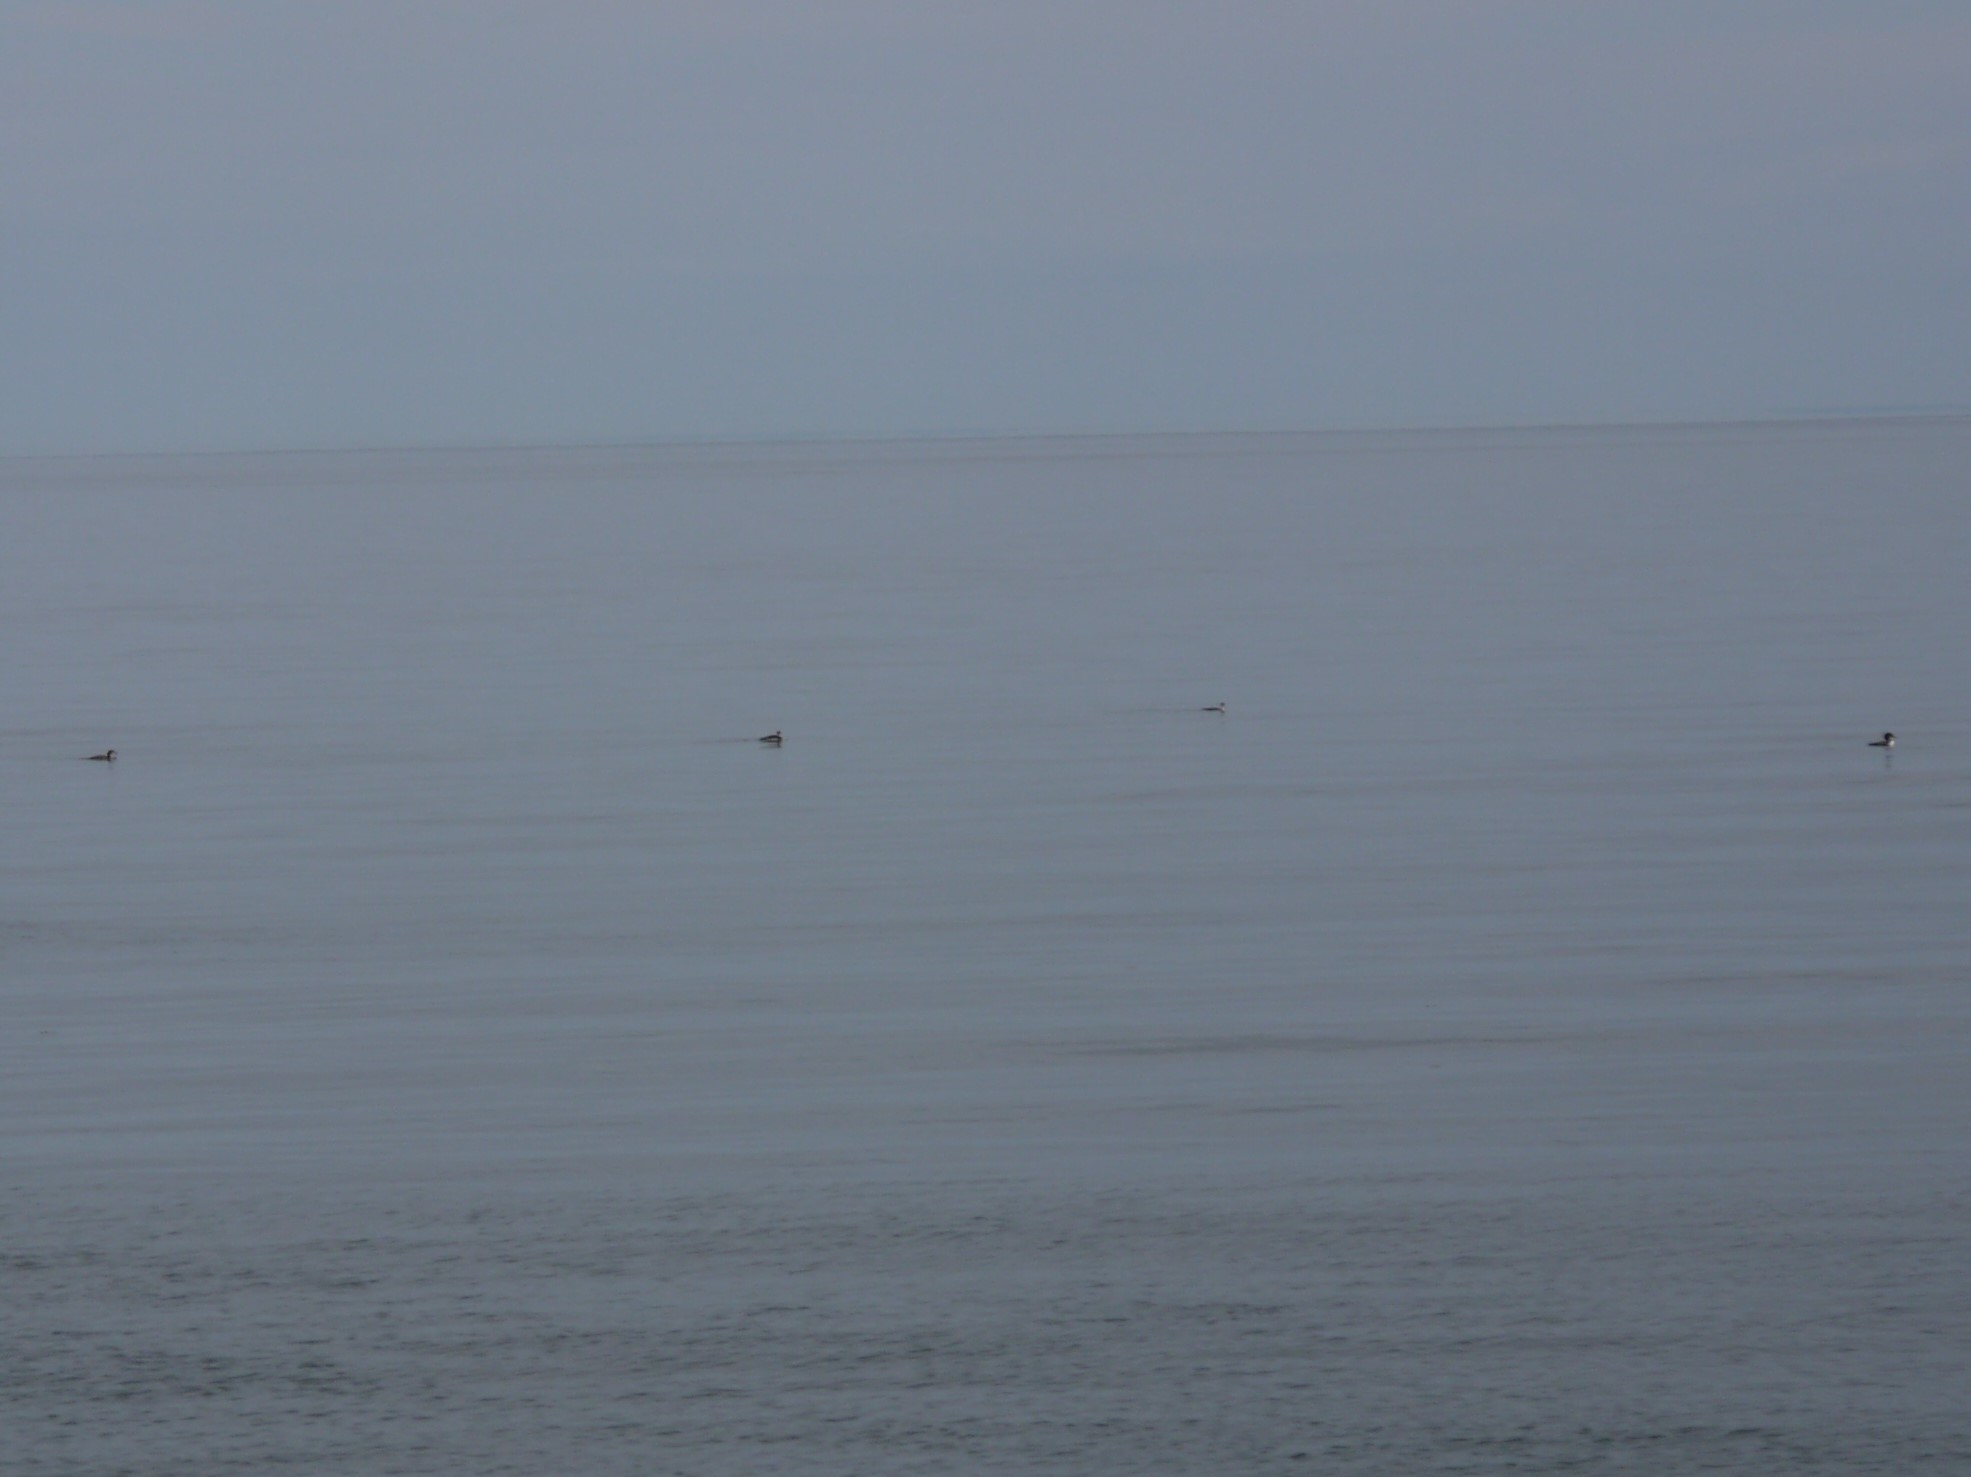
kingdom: Animalia
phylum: Chordata
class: Aves
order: Gaviiformes
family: Gaviidae
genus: Gavia
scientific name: Gavia immer
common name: Common loon
